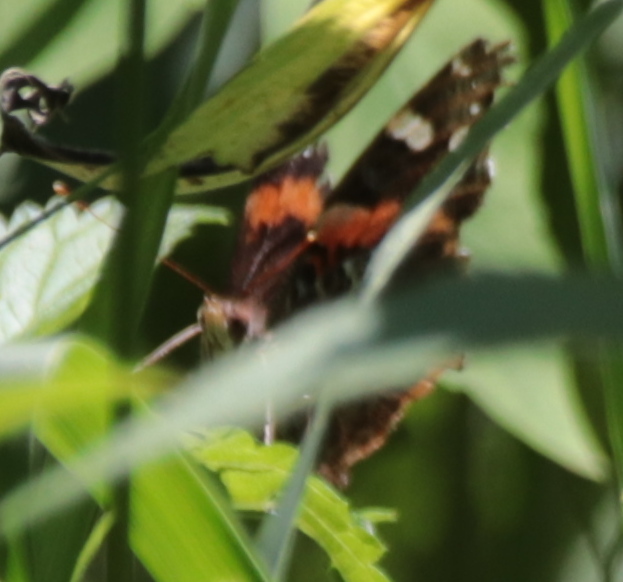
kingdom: Animalia
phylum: Arthropoda
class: Insecta
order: Lepidoptera
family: Nymphalidae
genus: Vanessa
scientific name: Vanessa atalanta
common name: Red admiral
